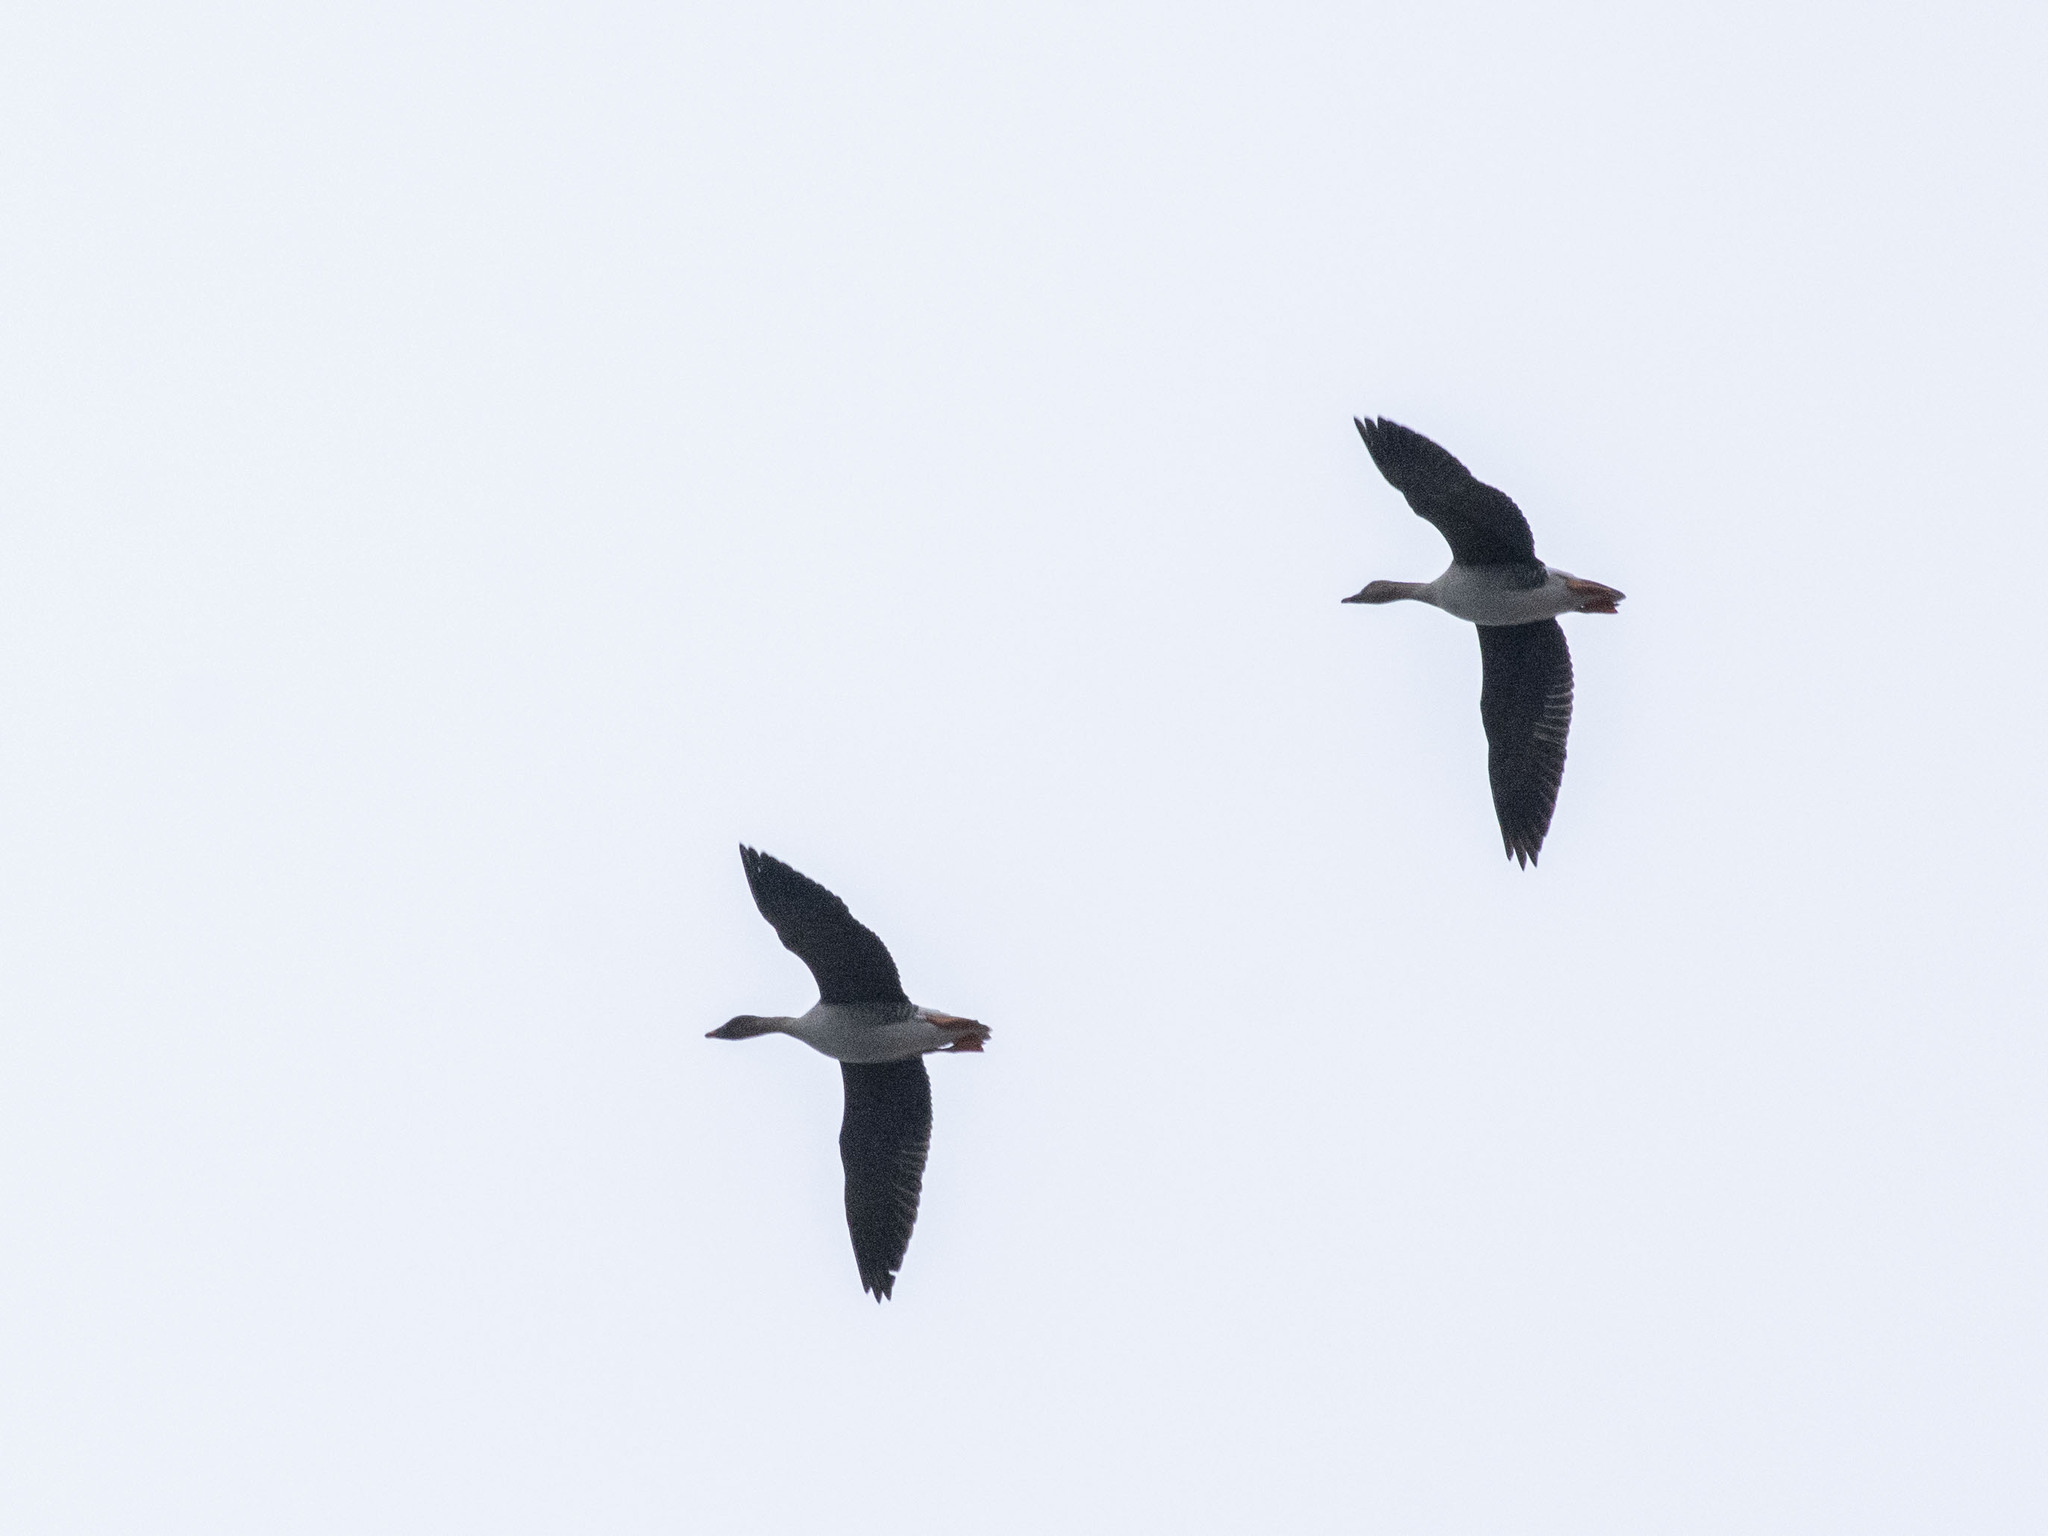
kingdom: Animalia
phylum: Chordata
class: Aves
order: Anseriformes
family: Anatidae
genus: Anser
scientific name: Anser serrirostris
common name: Tundra bean goose
